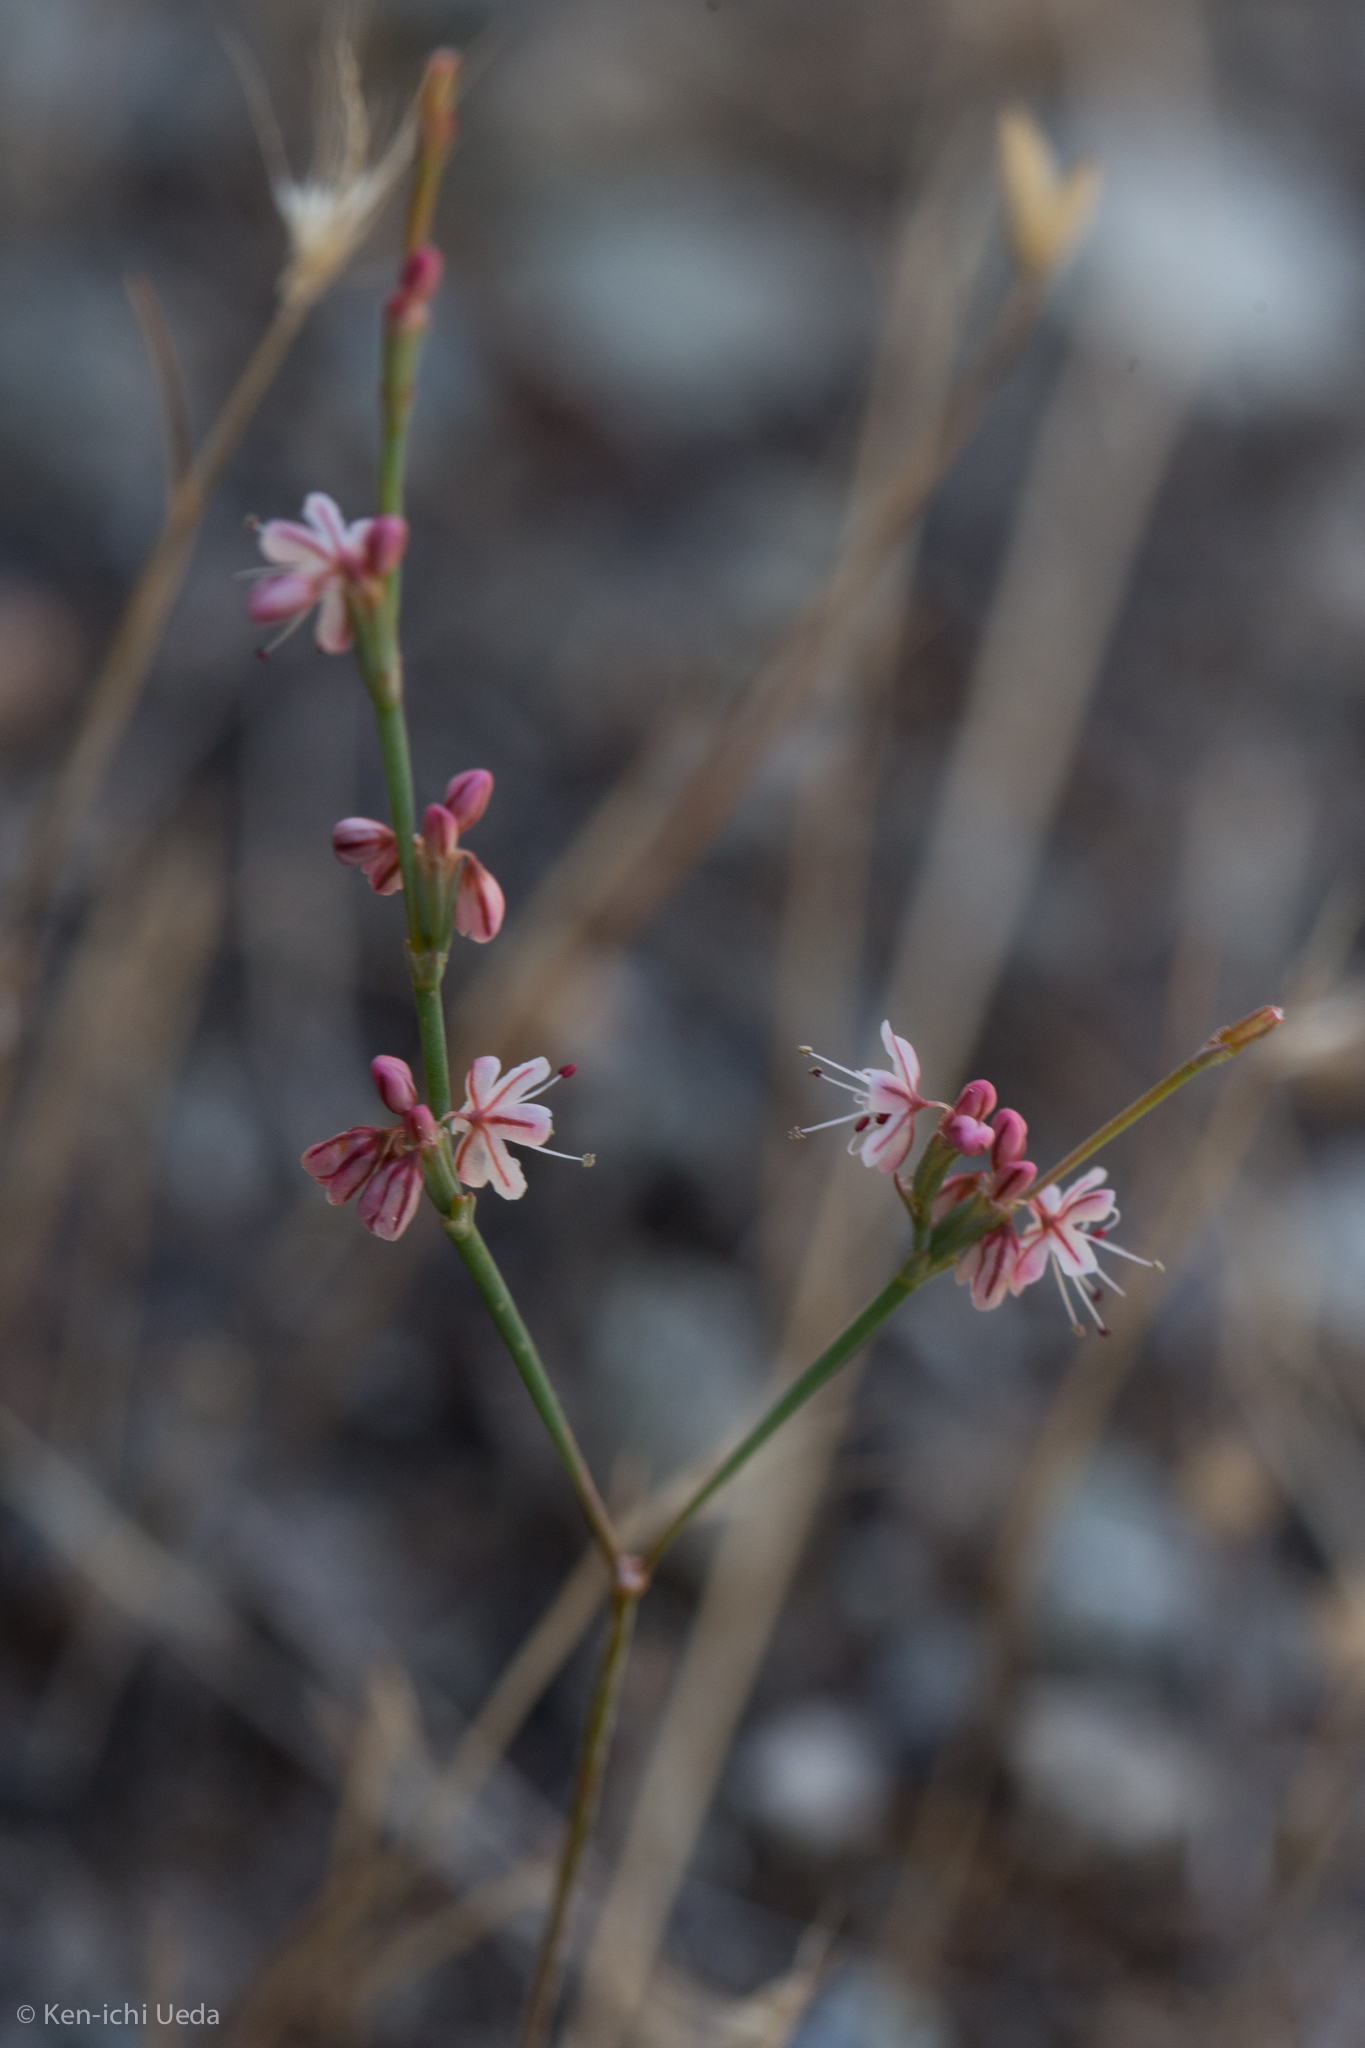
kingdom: Plantae
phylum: Tracheophyta
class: Magnoliopsida
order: Caryophyllales
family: Polygonaceae
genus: Eriogonum
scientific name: Eriogonum vimineum
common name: Wicker buckwheat
